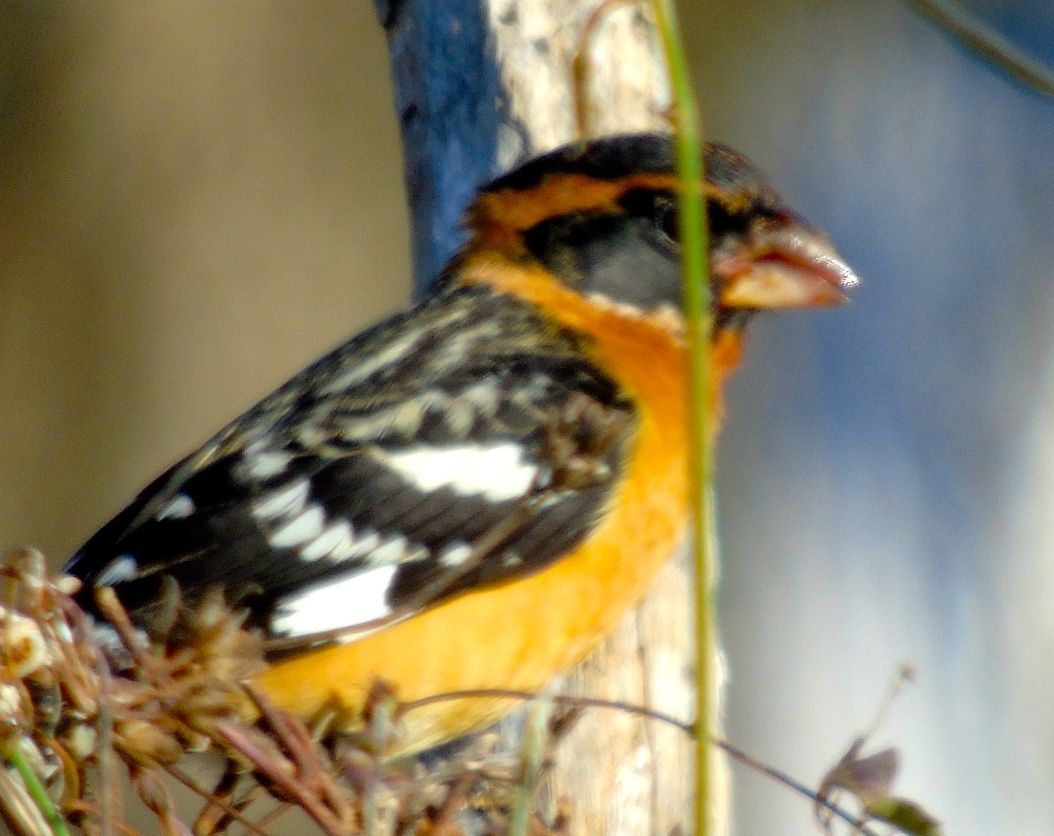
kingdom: Animalia
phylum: Chordata
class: Aves
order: Passeriformes
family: Cardinalidae
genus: Pheucticus
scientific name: Pheucticus melanocephalus
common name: Black-headed grosbeak
